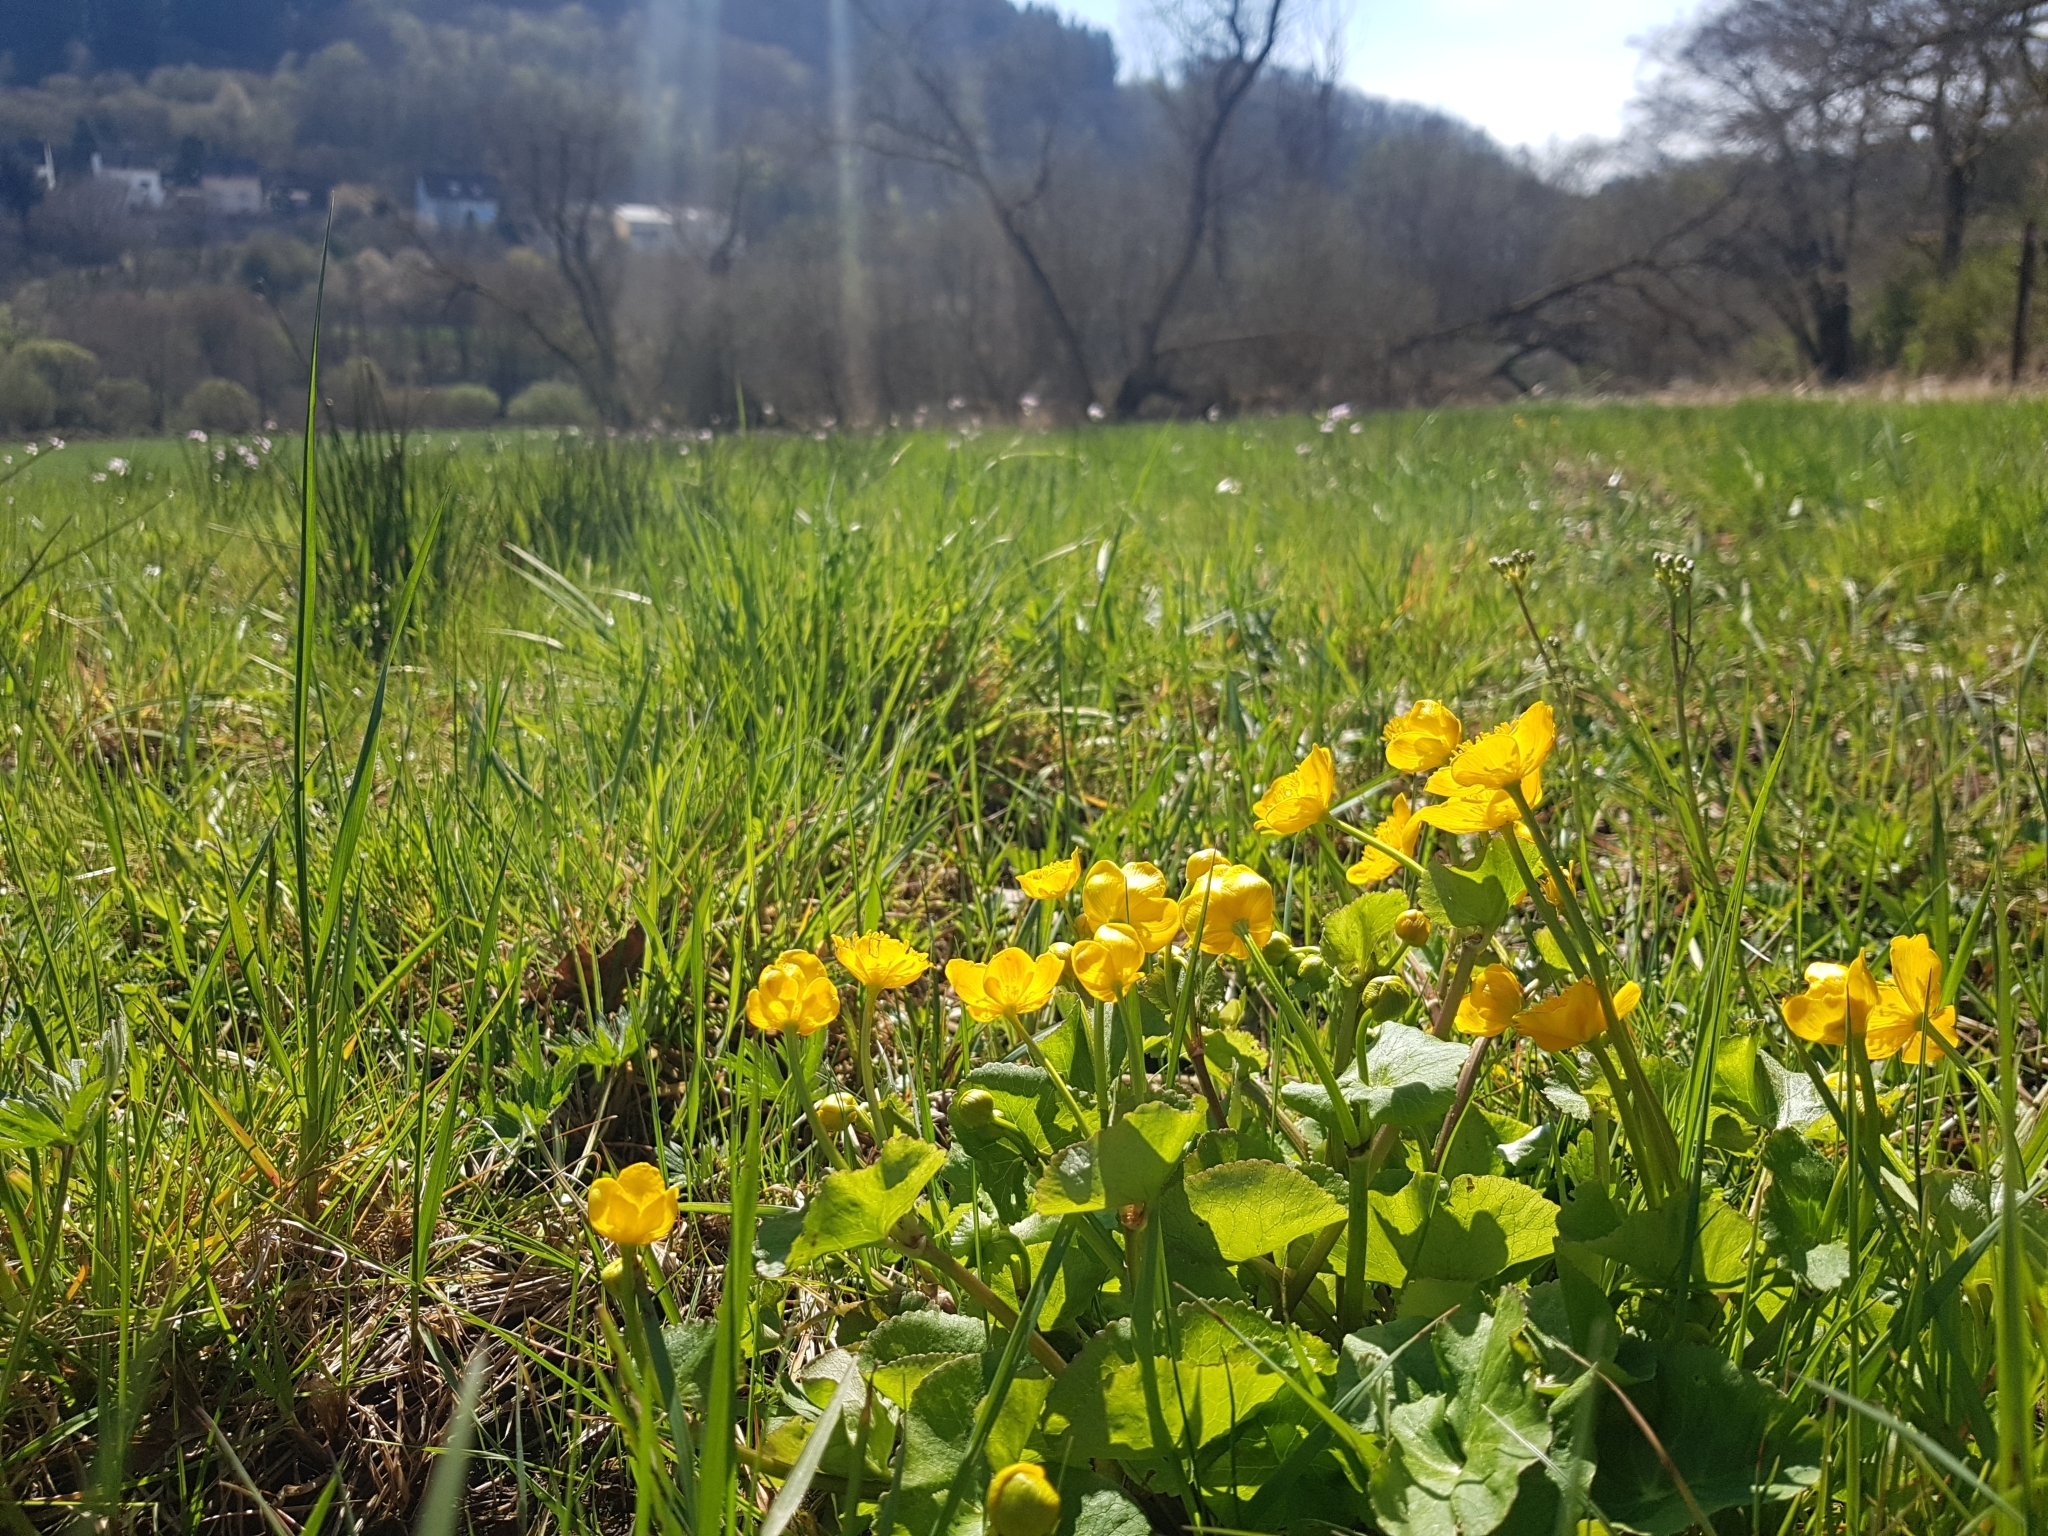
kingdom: Plantae
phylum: Tracheophyta
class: Magnoliopsida
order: Ranunculales
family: Ranunculaceae
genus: Caltha
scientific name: Caltha palustris
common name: Marsh marigold
